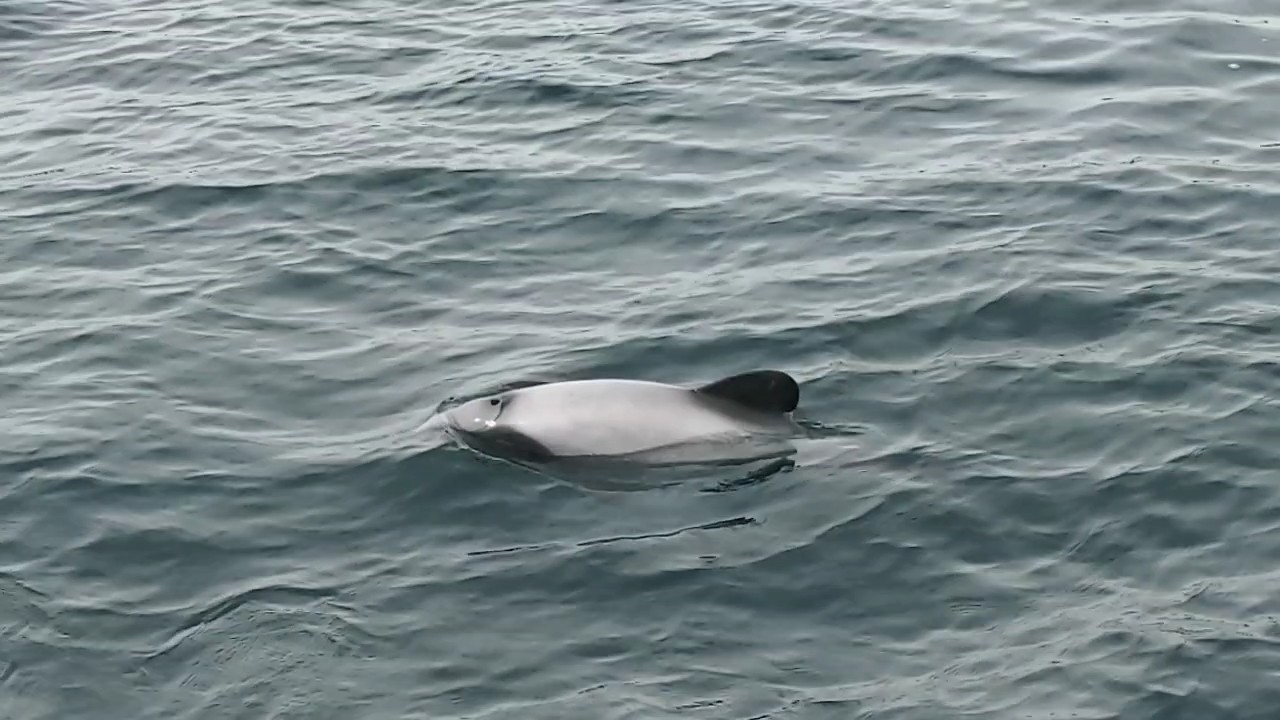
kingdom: Animalia
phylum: Chordata
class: Mammalia
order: Cetacea
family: Delphinidae
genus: Cephalorhynchus
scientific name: Cephalorhynchus hectori
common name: Hector's dolphin
